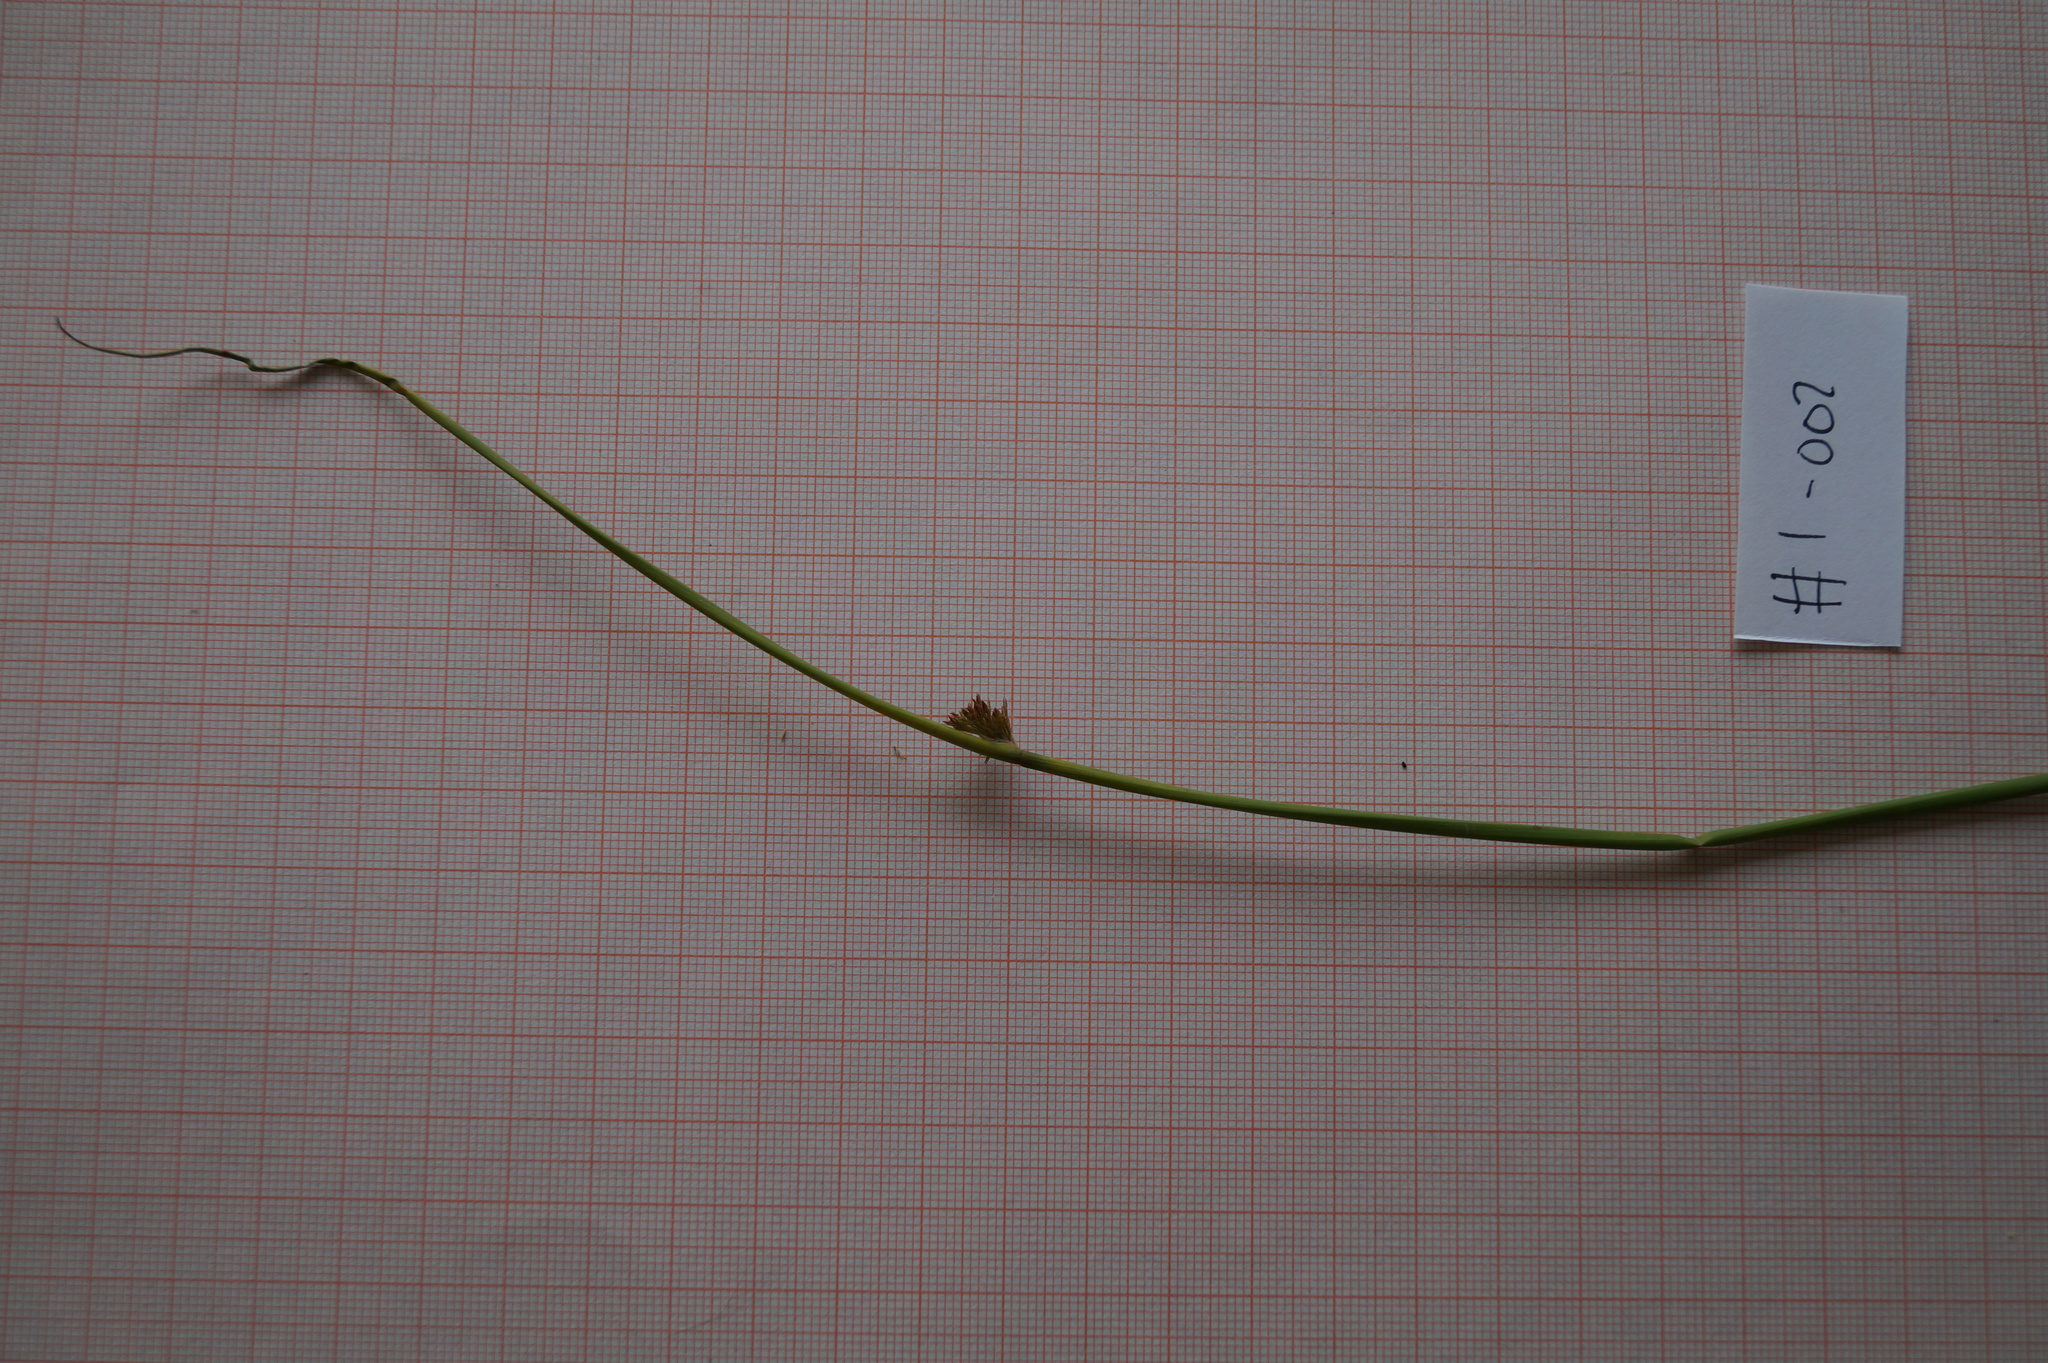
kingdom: Plantae
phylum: Tracheophyta
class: Liliopsida
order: Poales
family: Juncaceae
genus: Juncus
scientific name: Juncus effusus
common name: Soft rush
